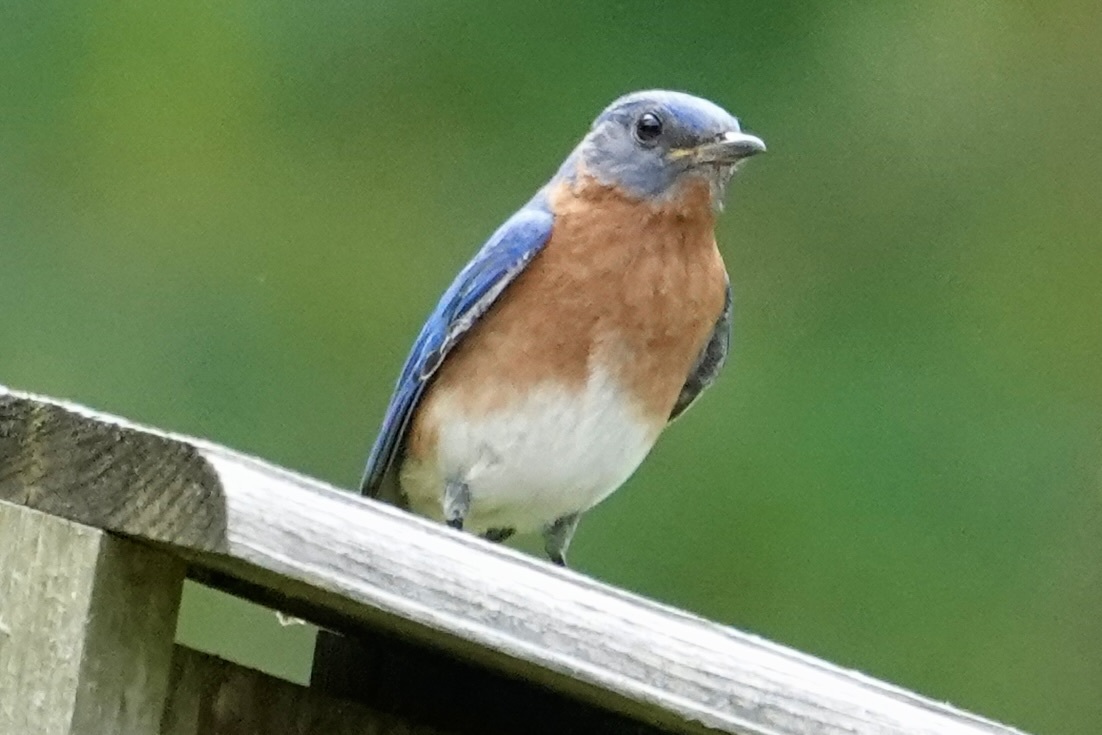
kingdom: Animalia
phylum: Chordata
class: Aves
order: Passeriformes
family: Turdidae
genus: Sialia
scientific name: Sialia sialis
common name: Eastern bluebird
